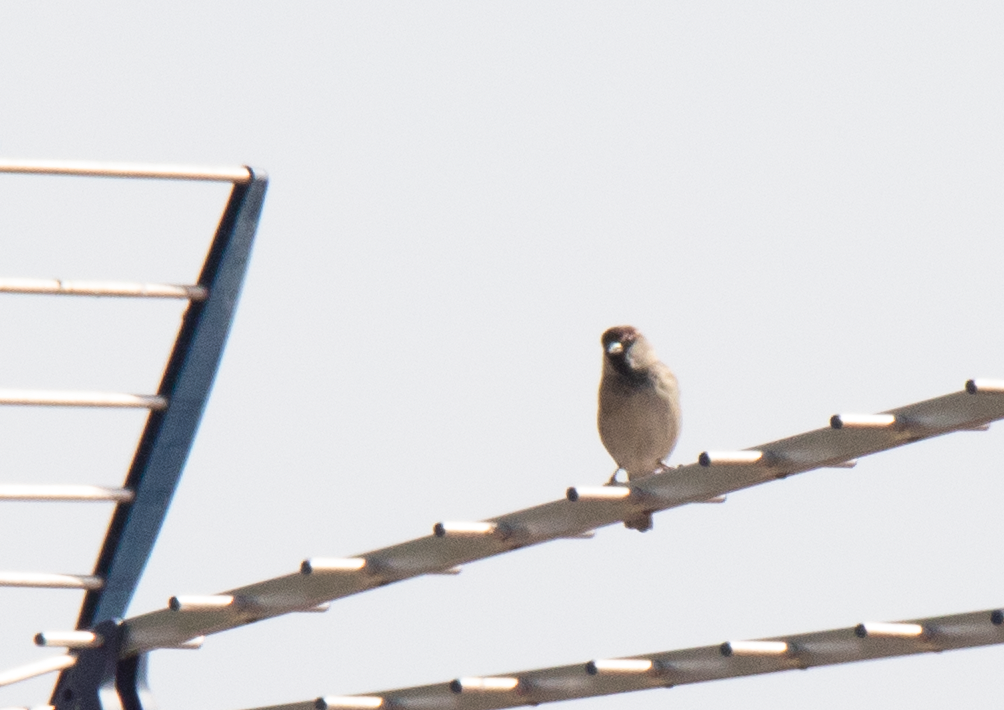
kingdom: Animalia
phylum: Chordata
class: Aves
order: Passeriformes
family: Passeridae
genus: Passer
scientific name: Passer italiae
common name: Italian sparrow
